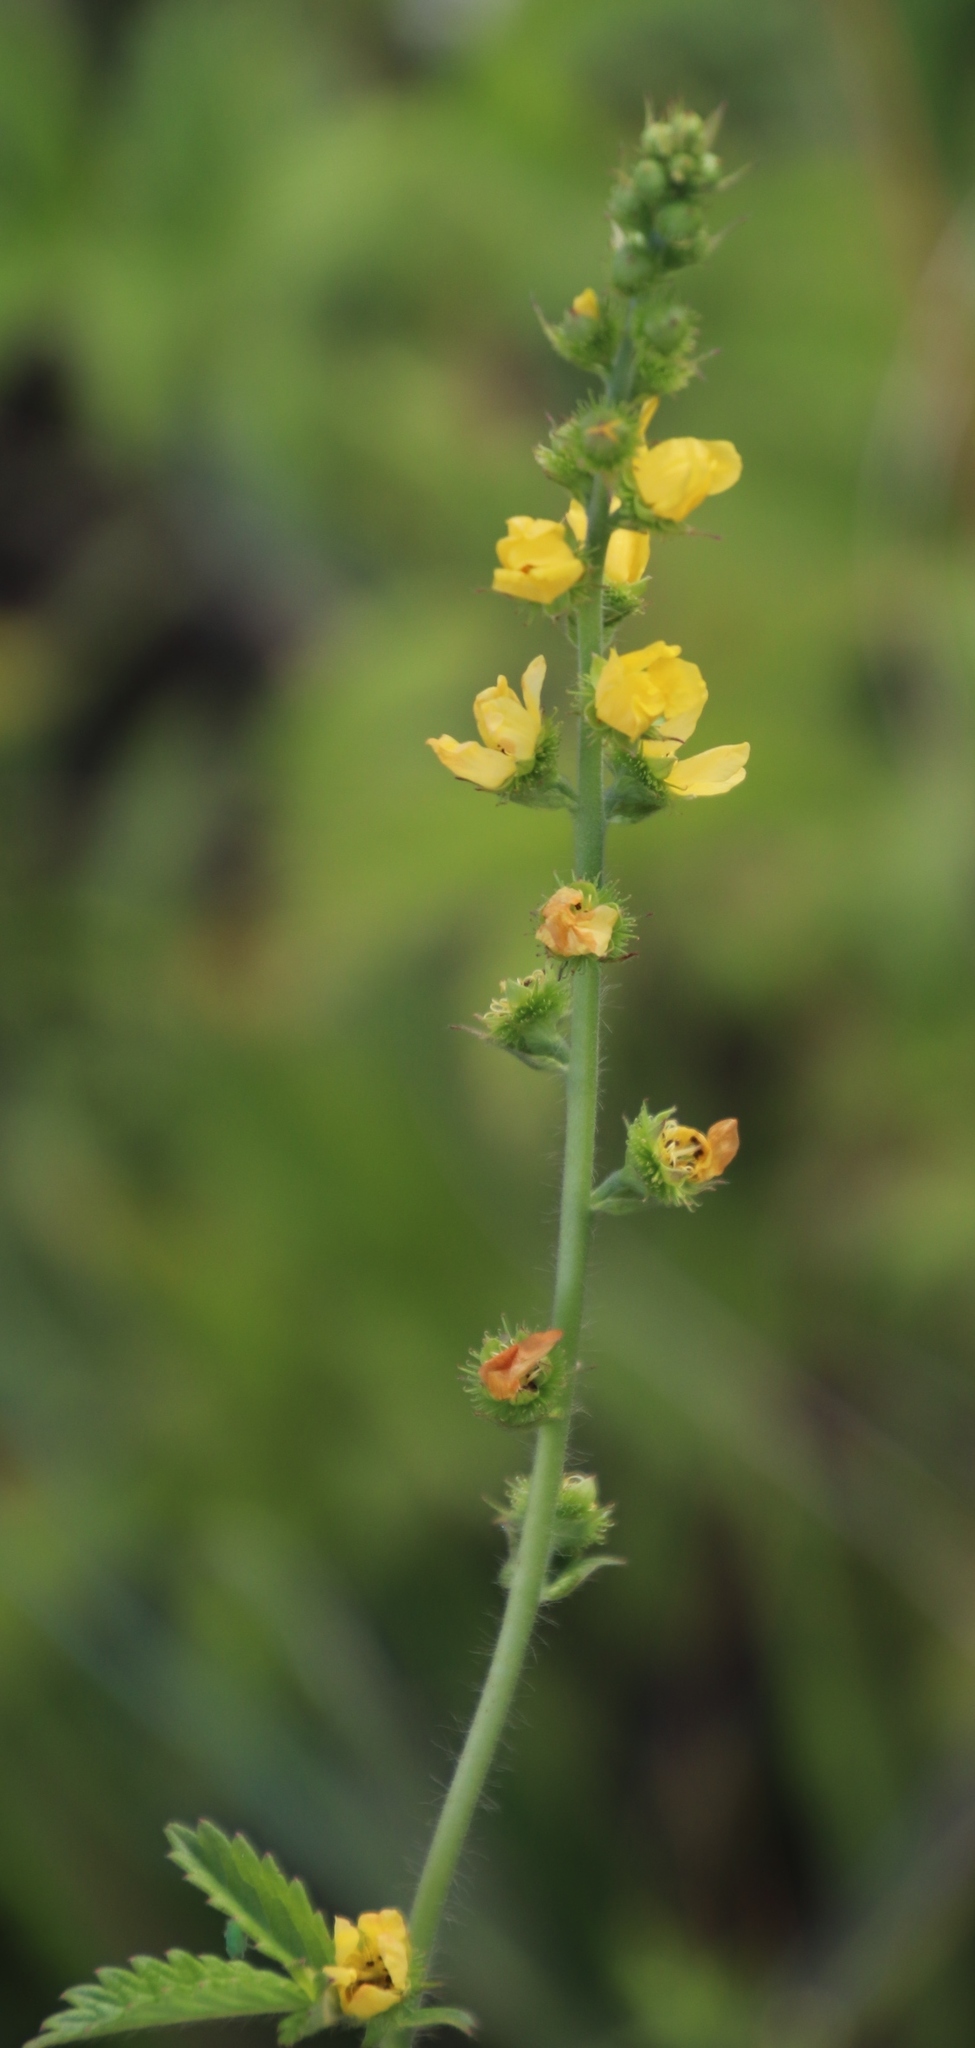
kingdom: Plantae
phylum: Tracheophyta
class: Magnoliopsida
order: Rosales
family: Rosaceae
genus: Agrimonia
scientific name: Agrimonia bracteata
